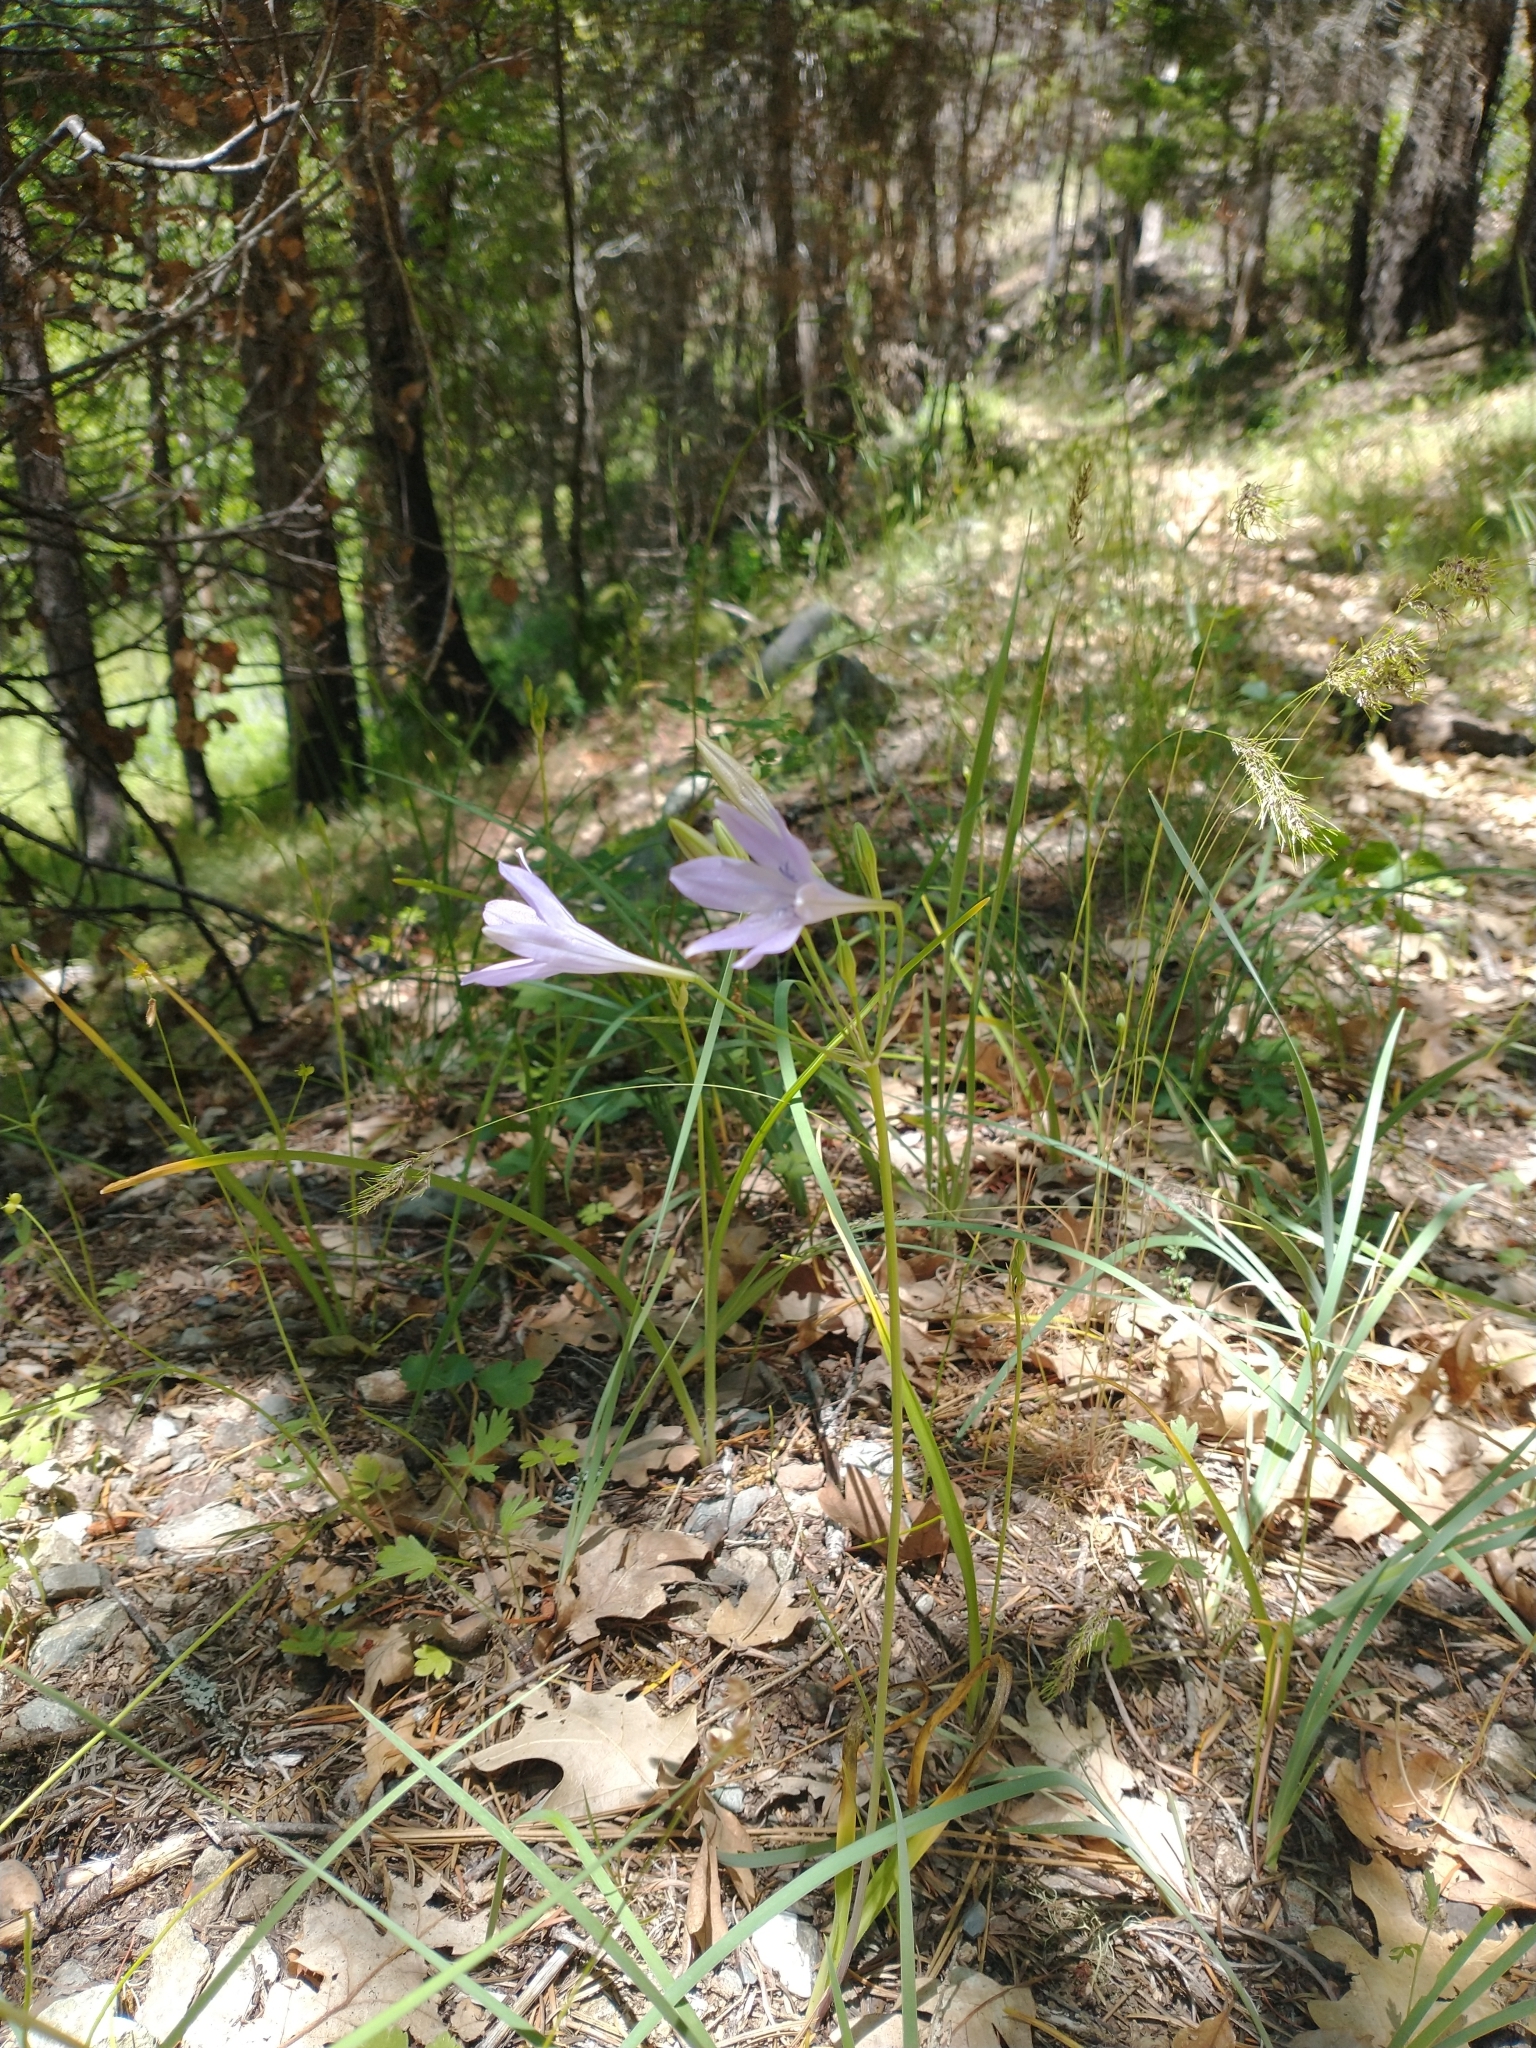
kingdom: Plantae
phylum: Tracheophyta
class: Liliopsida
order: Asparagales
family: Asparagaceae
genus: Triteleia
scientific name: Triteleia laxa
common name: Triplet-lily
